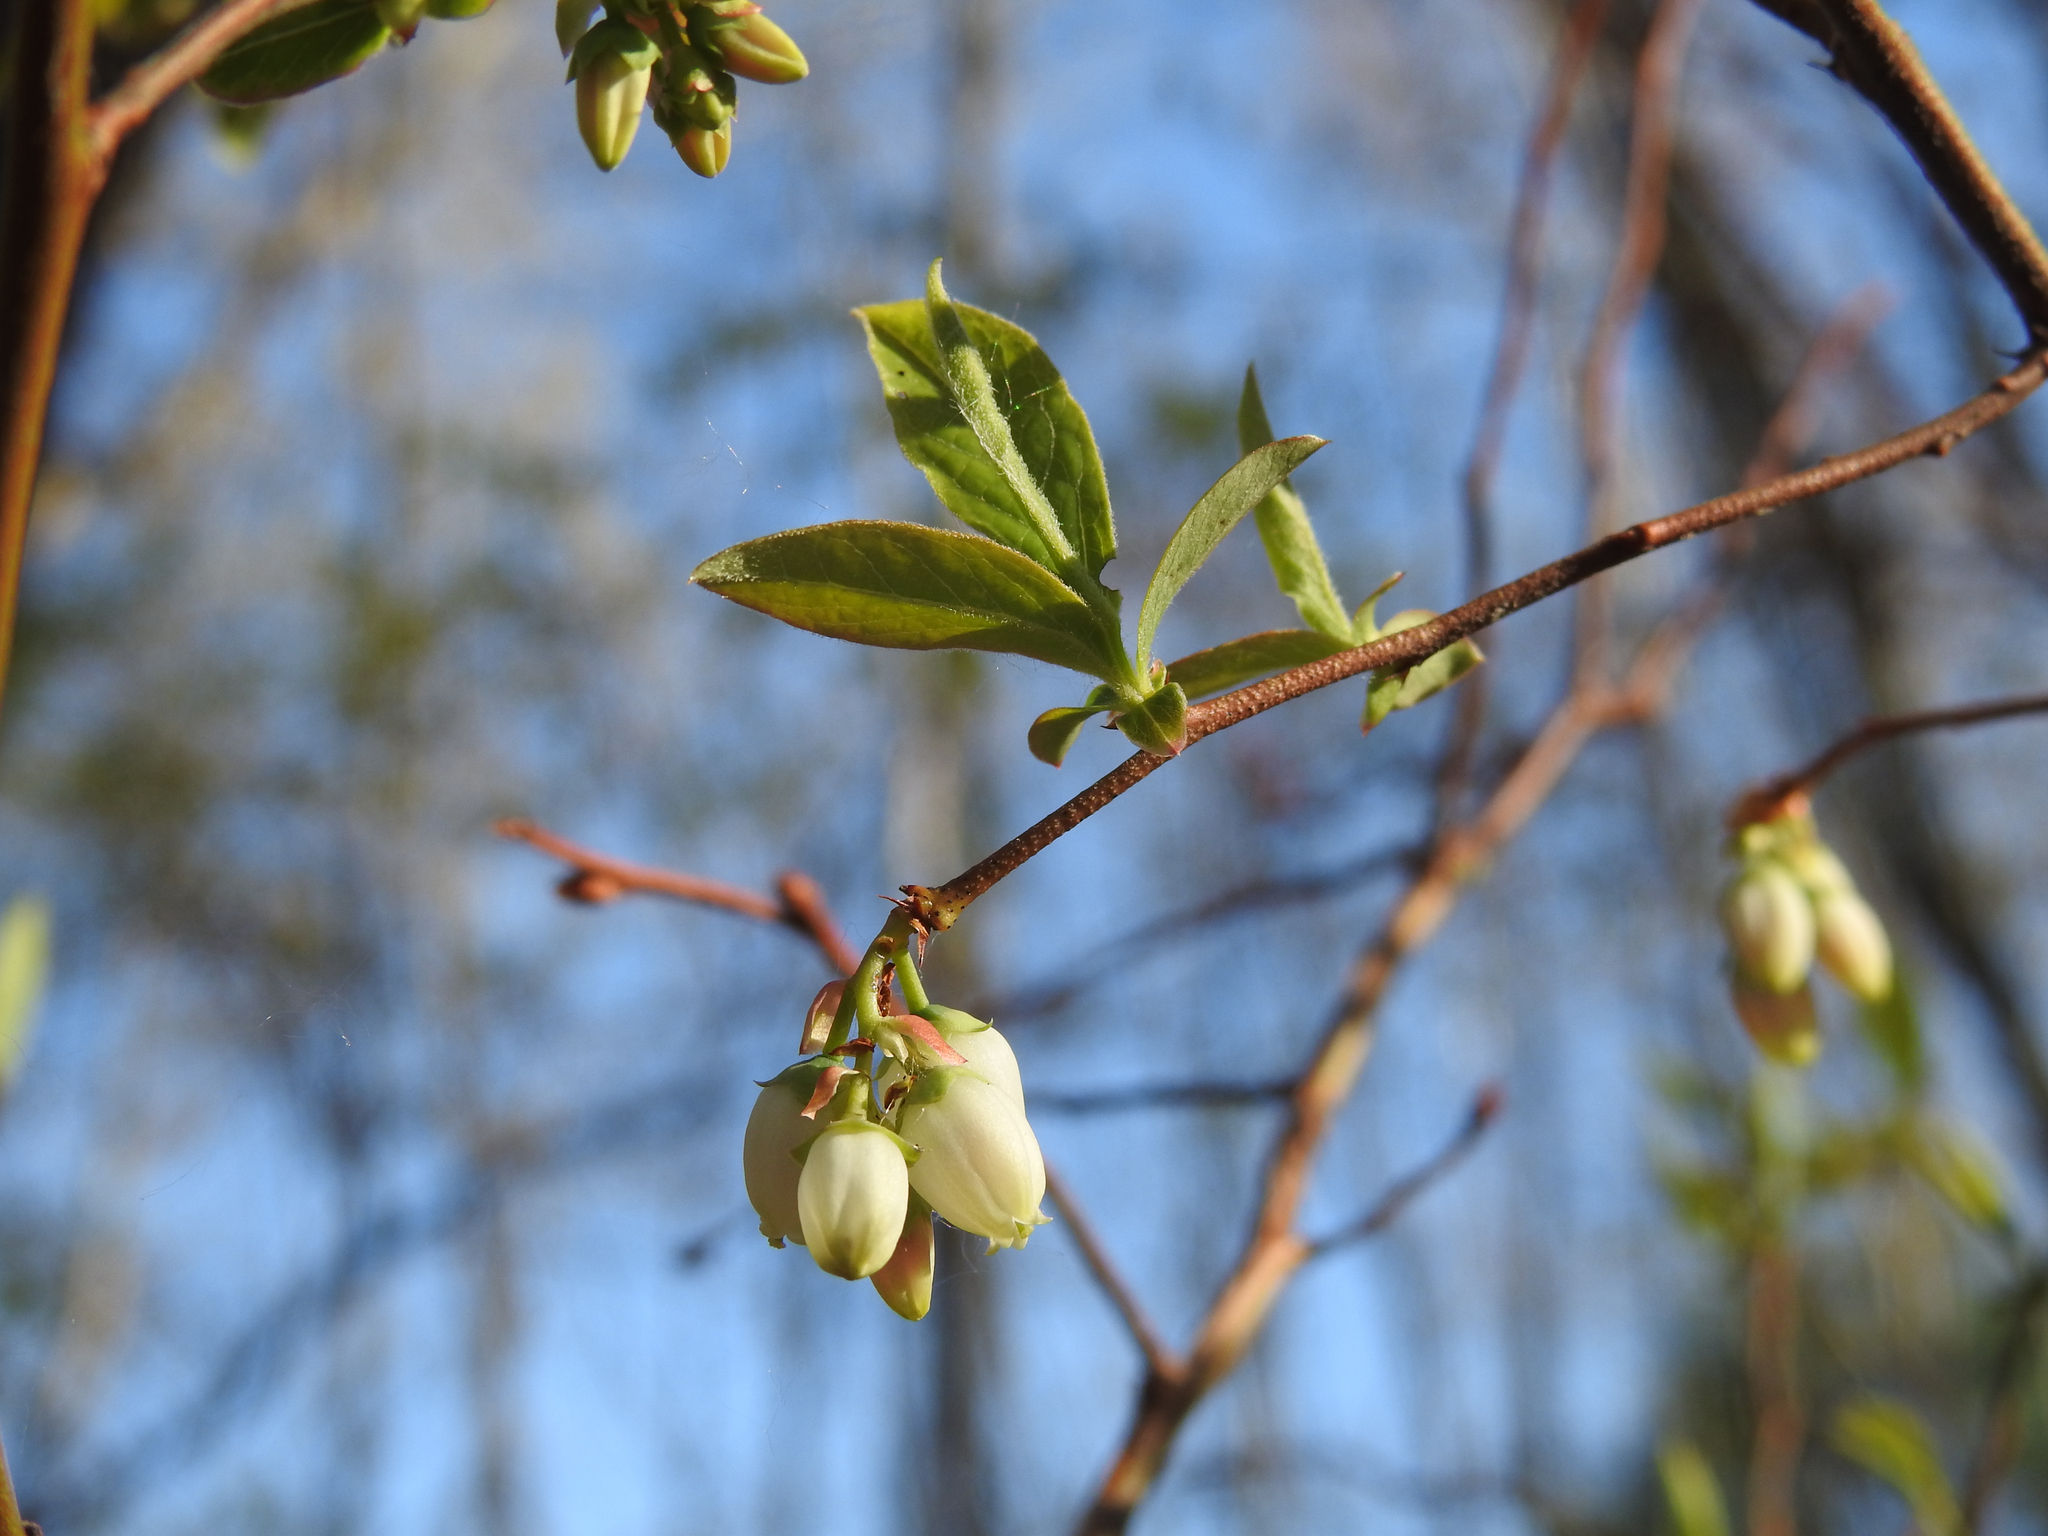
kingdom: Plantae
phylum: Tracheophyta
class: Magnoliopsida
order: Ericales
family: Ericaceae
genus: Vaccinium
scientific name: Vaccinium corymbosum
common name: Blueberry
